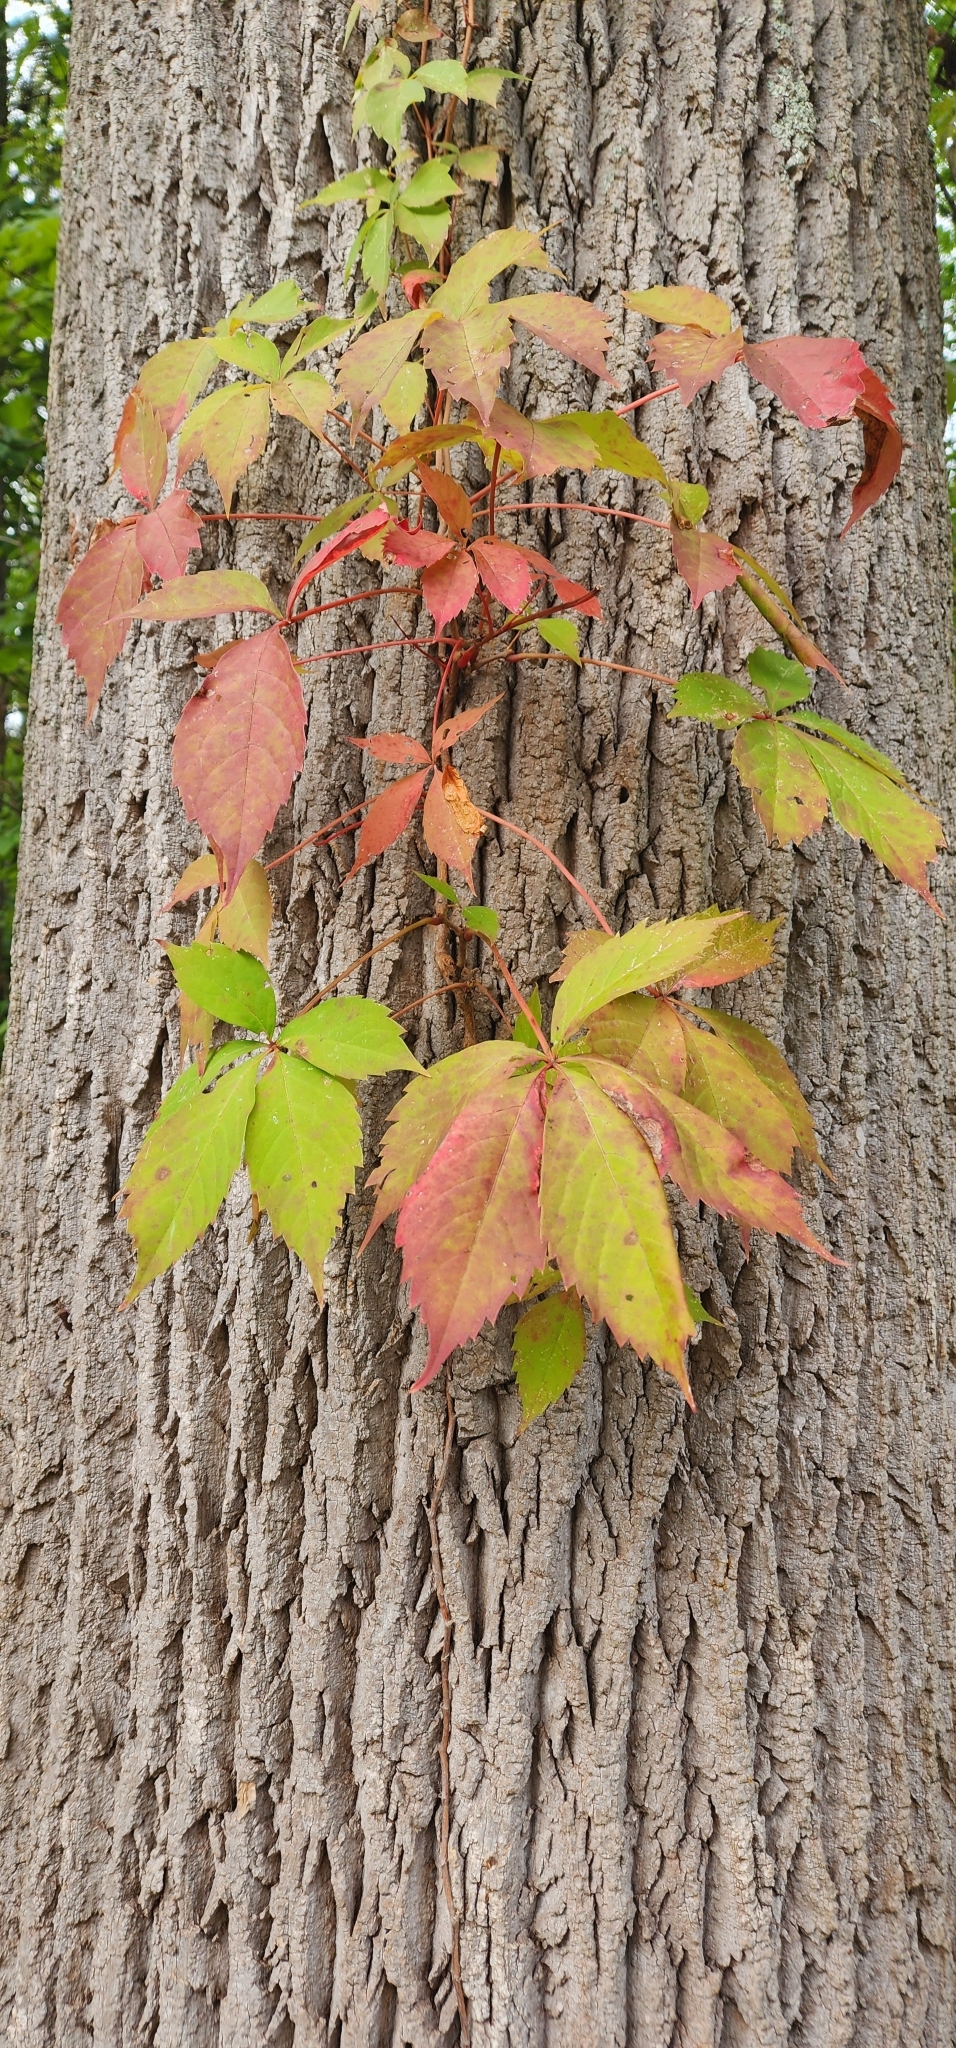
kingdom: Plantae
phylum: Tracheophyta
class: Magnoliopsida
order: Vitales
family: Vitaceae
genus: Parthenocissus
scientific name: Parthenocissus quinquefolia
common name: Virginia-creeper
